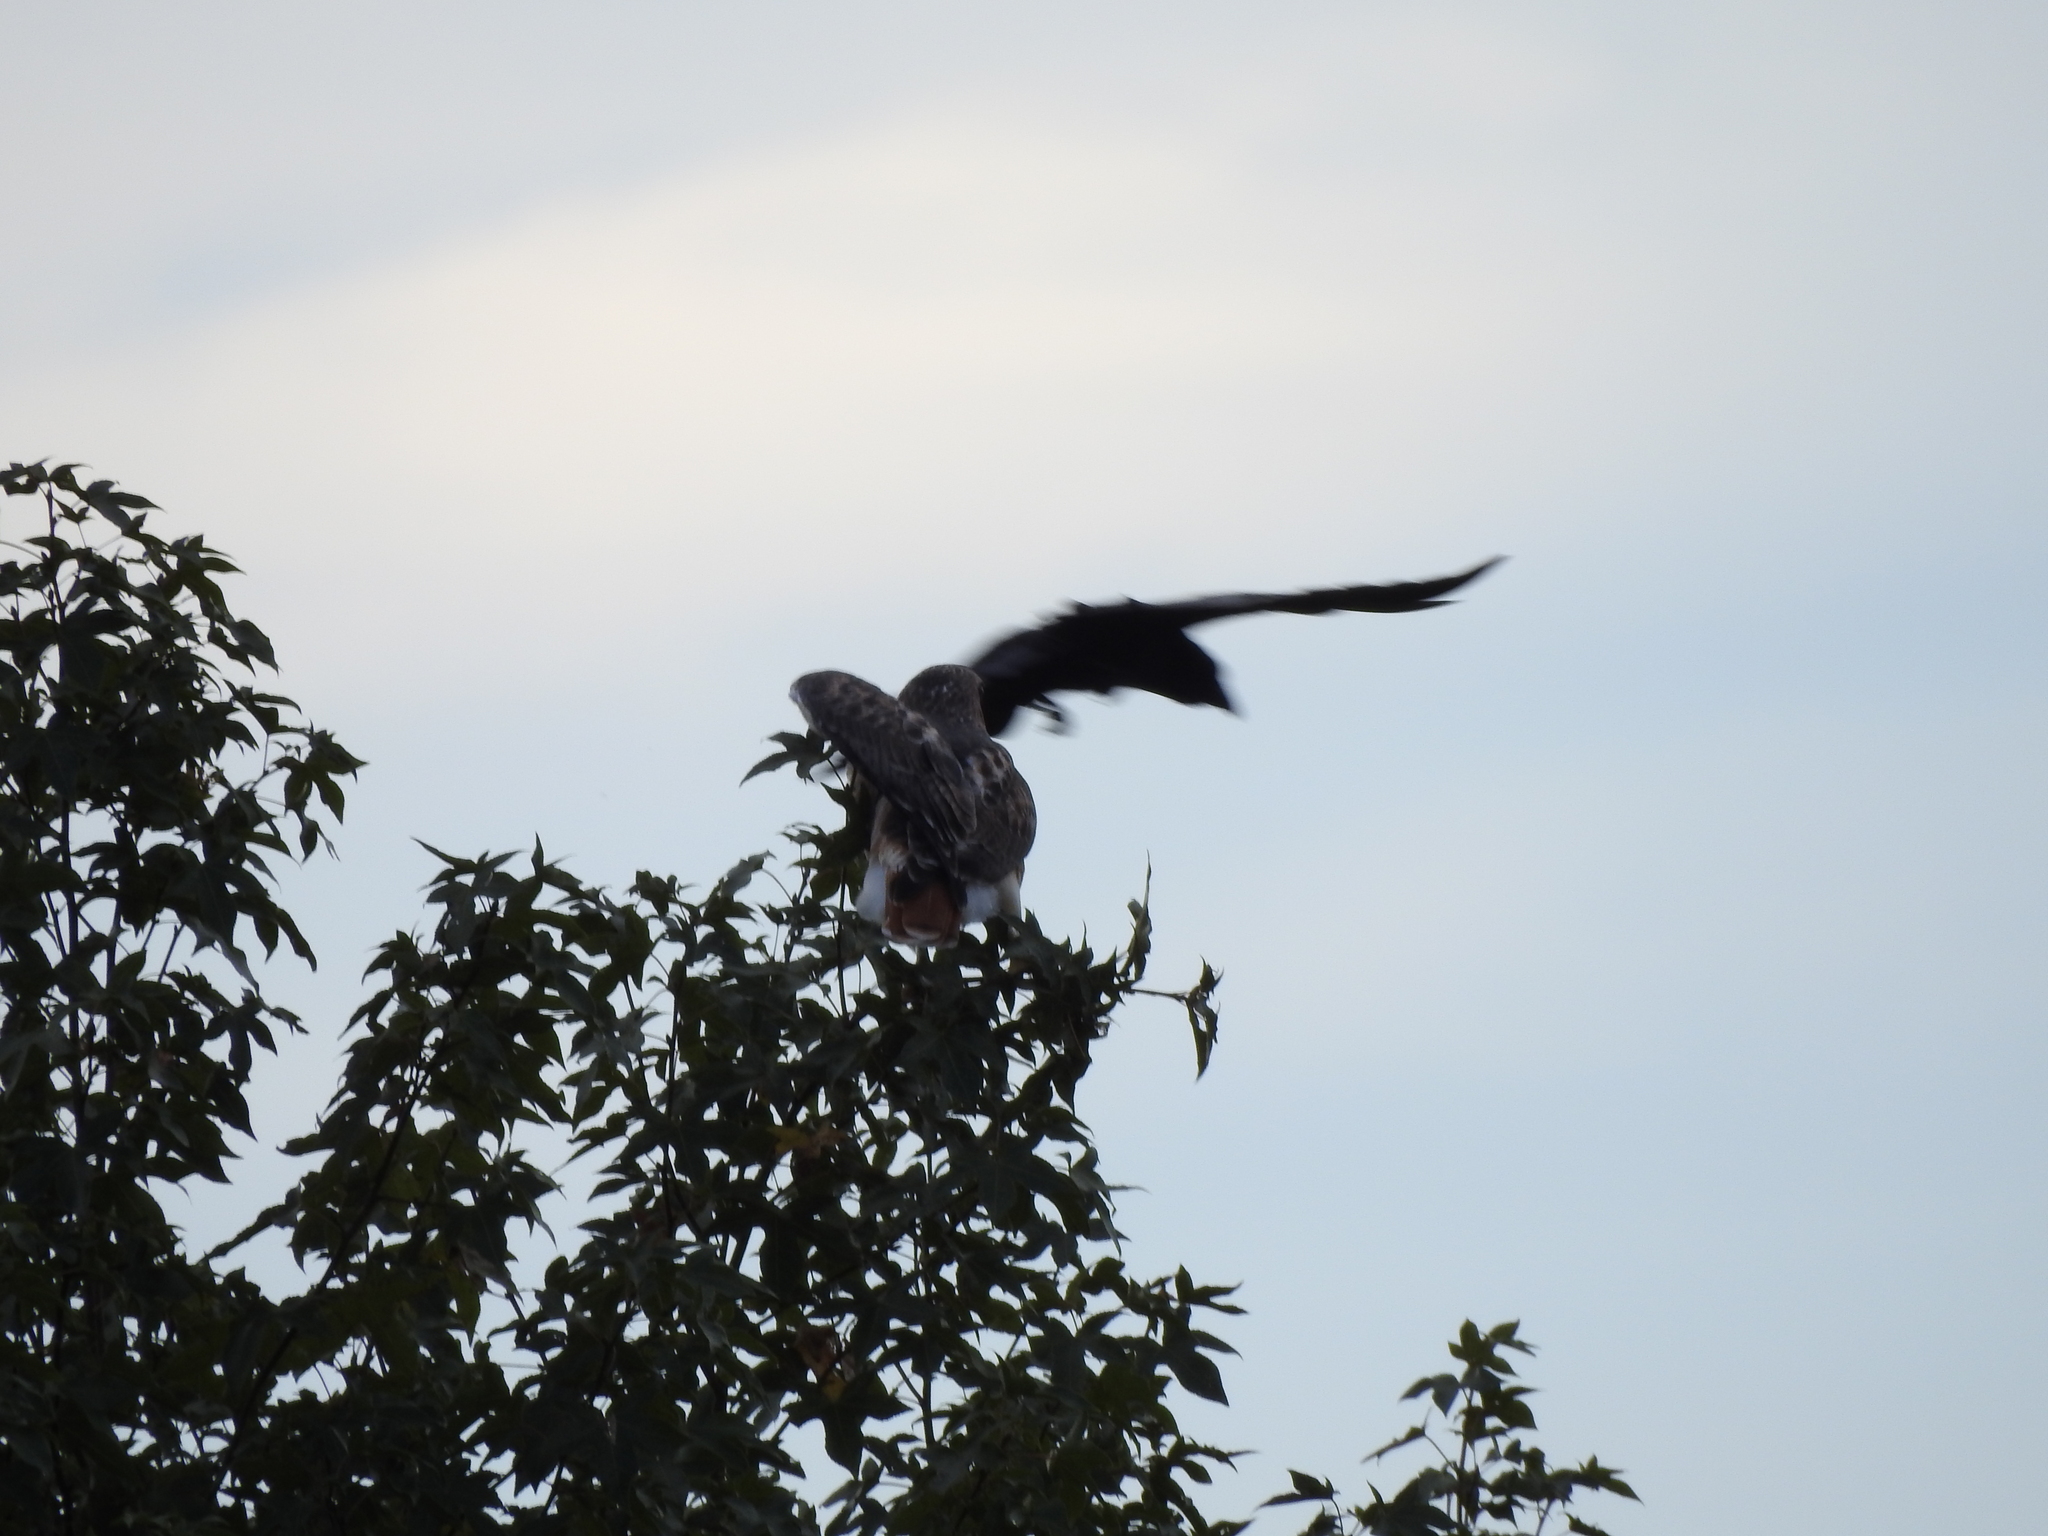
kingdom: Animalia
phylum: Chordata
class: Aves
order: Accipitriformes
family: Accipitridae
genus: Buteo
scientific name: Buteo jamaicensis
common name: Red-tailed hawk
